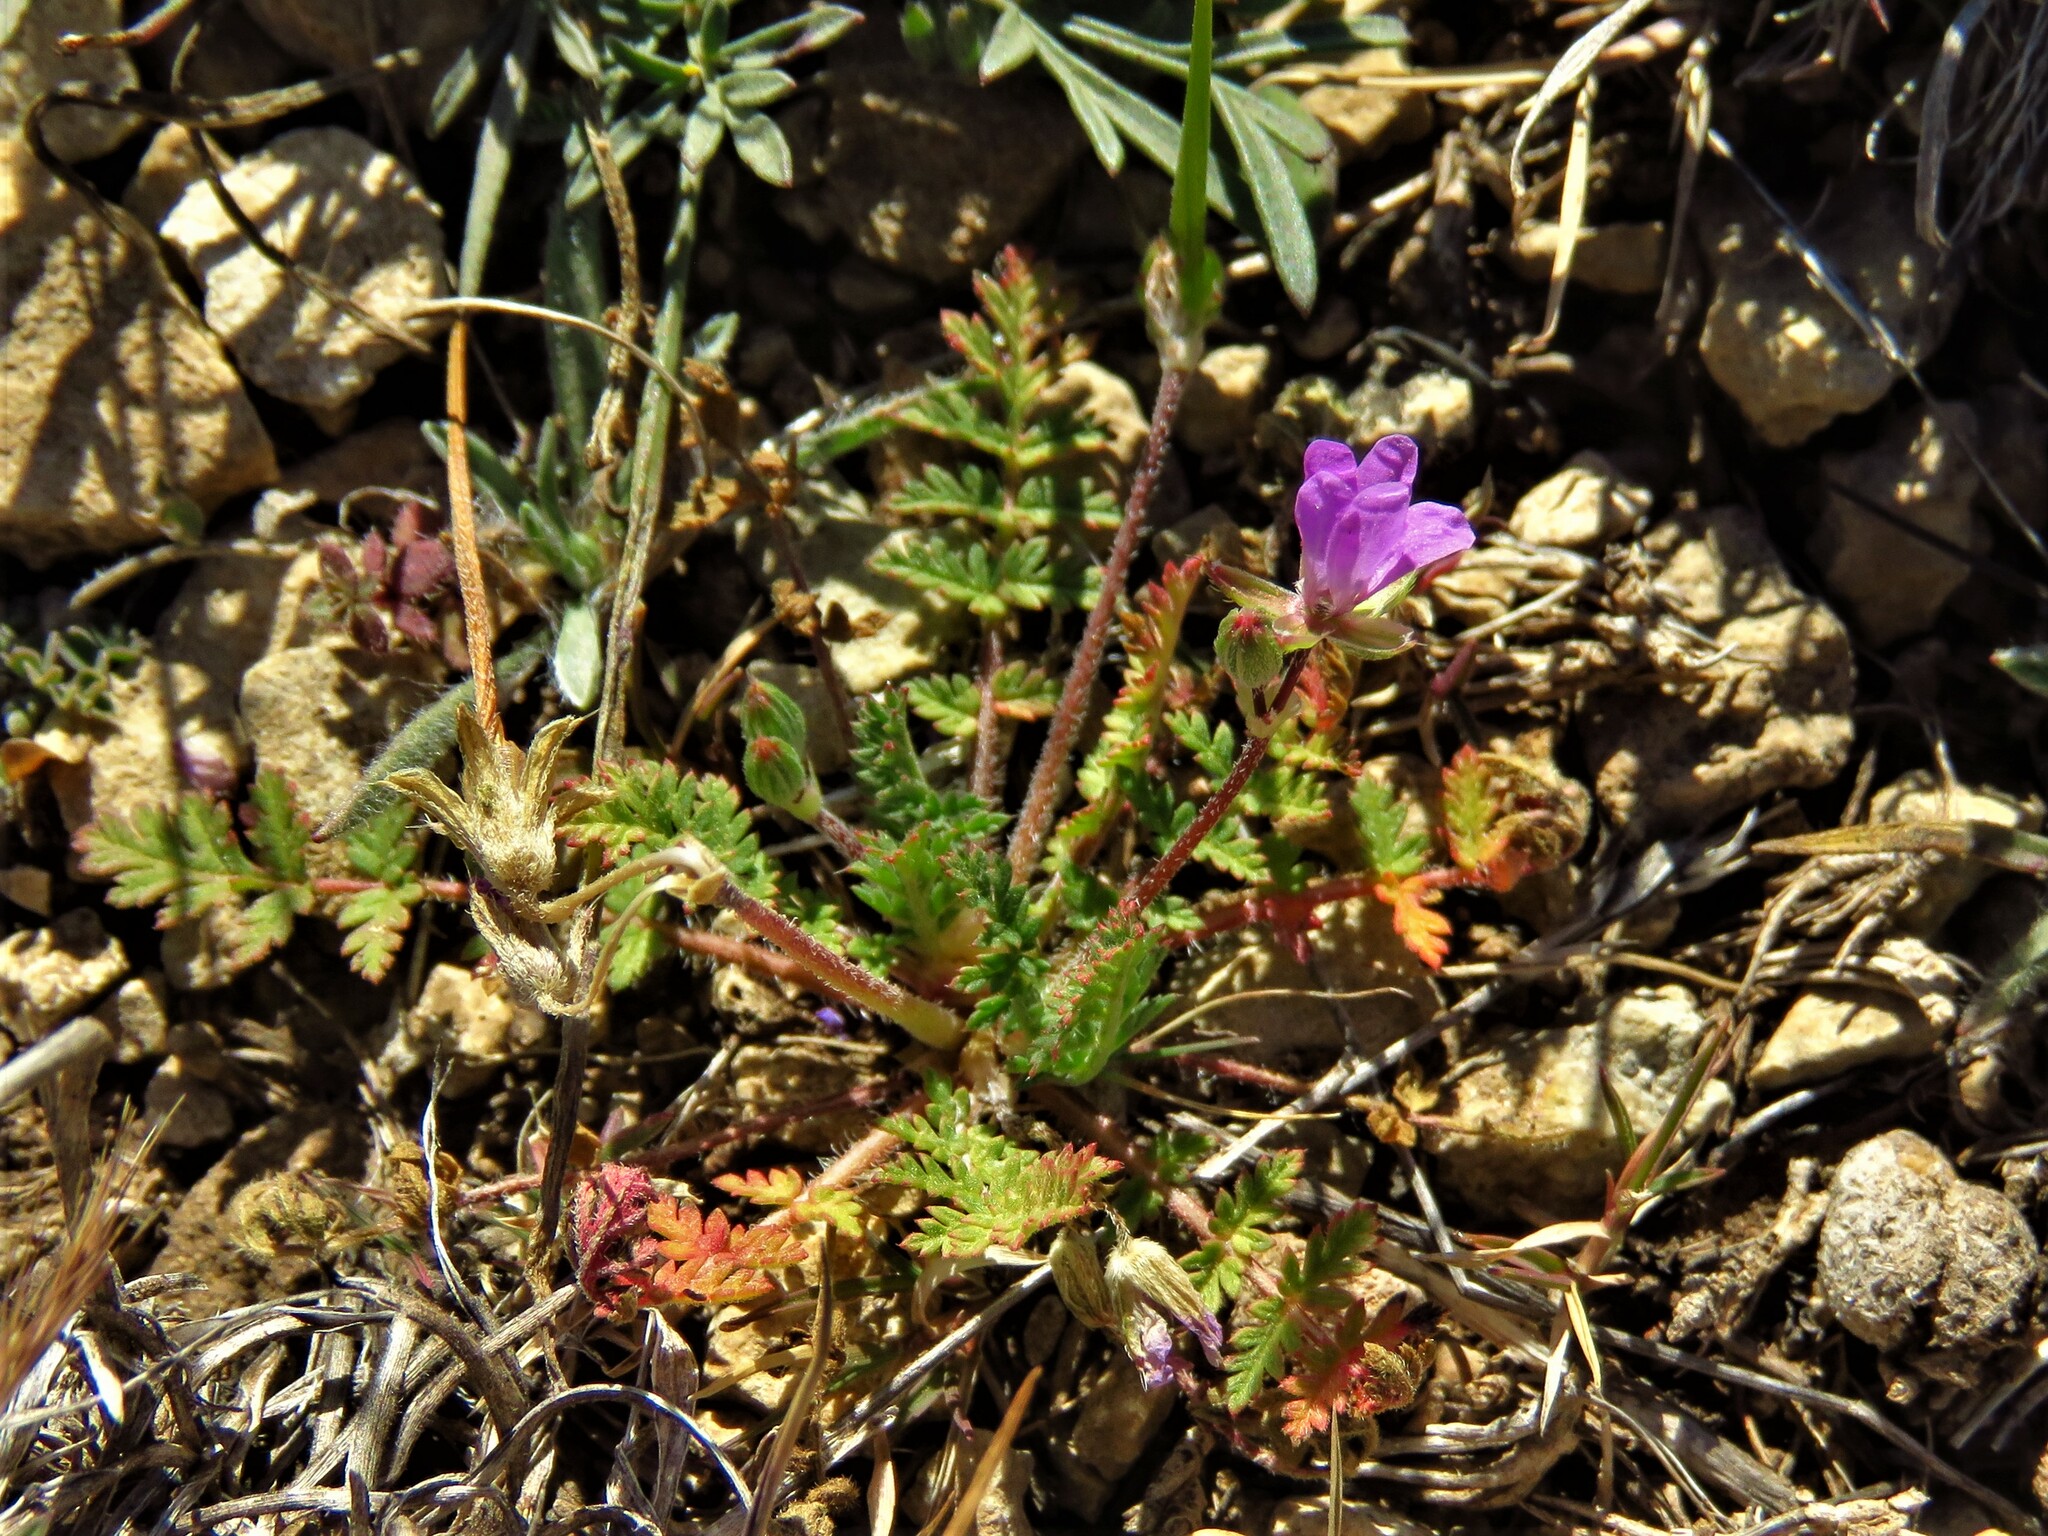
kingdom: Plantae
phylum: Tracheophyta
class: Magnoliopsida
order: Geraniales
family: Geraniaceae
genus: Erodium
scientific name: Erodium cicutarium
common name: Common stork's-bill
